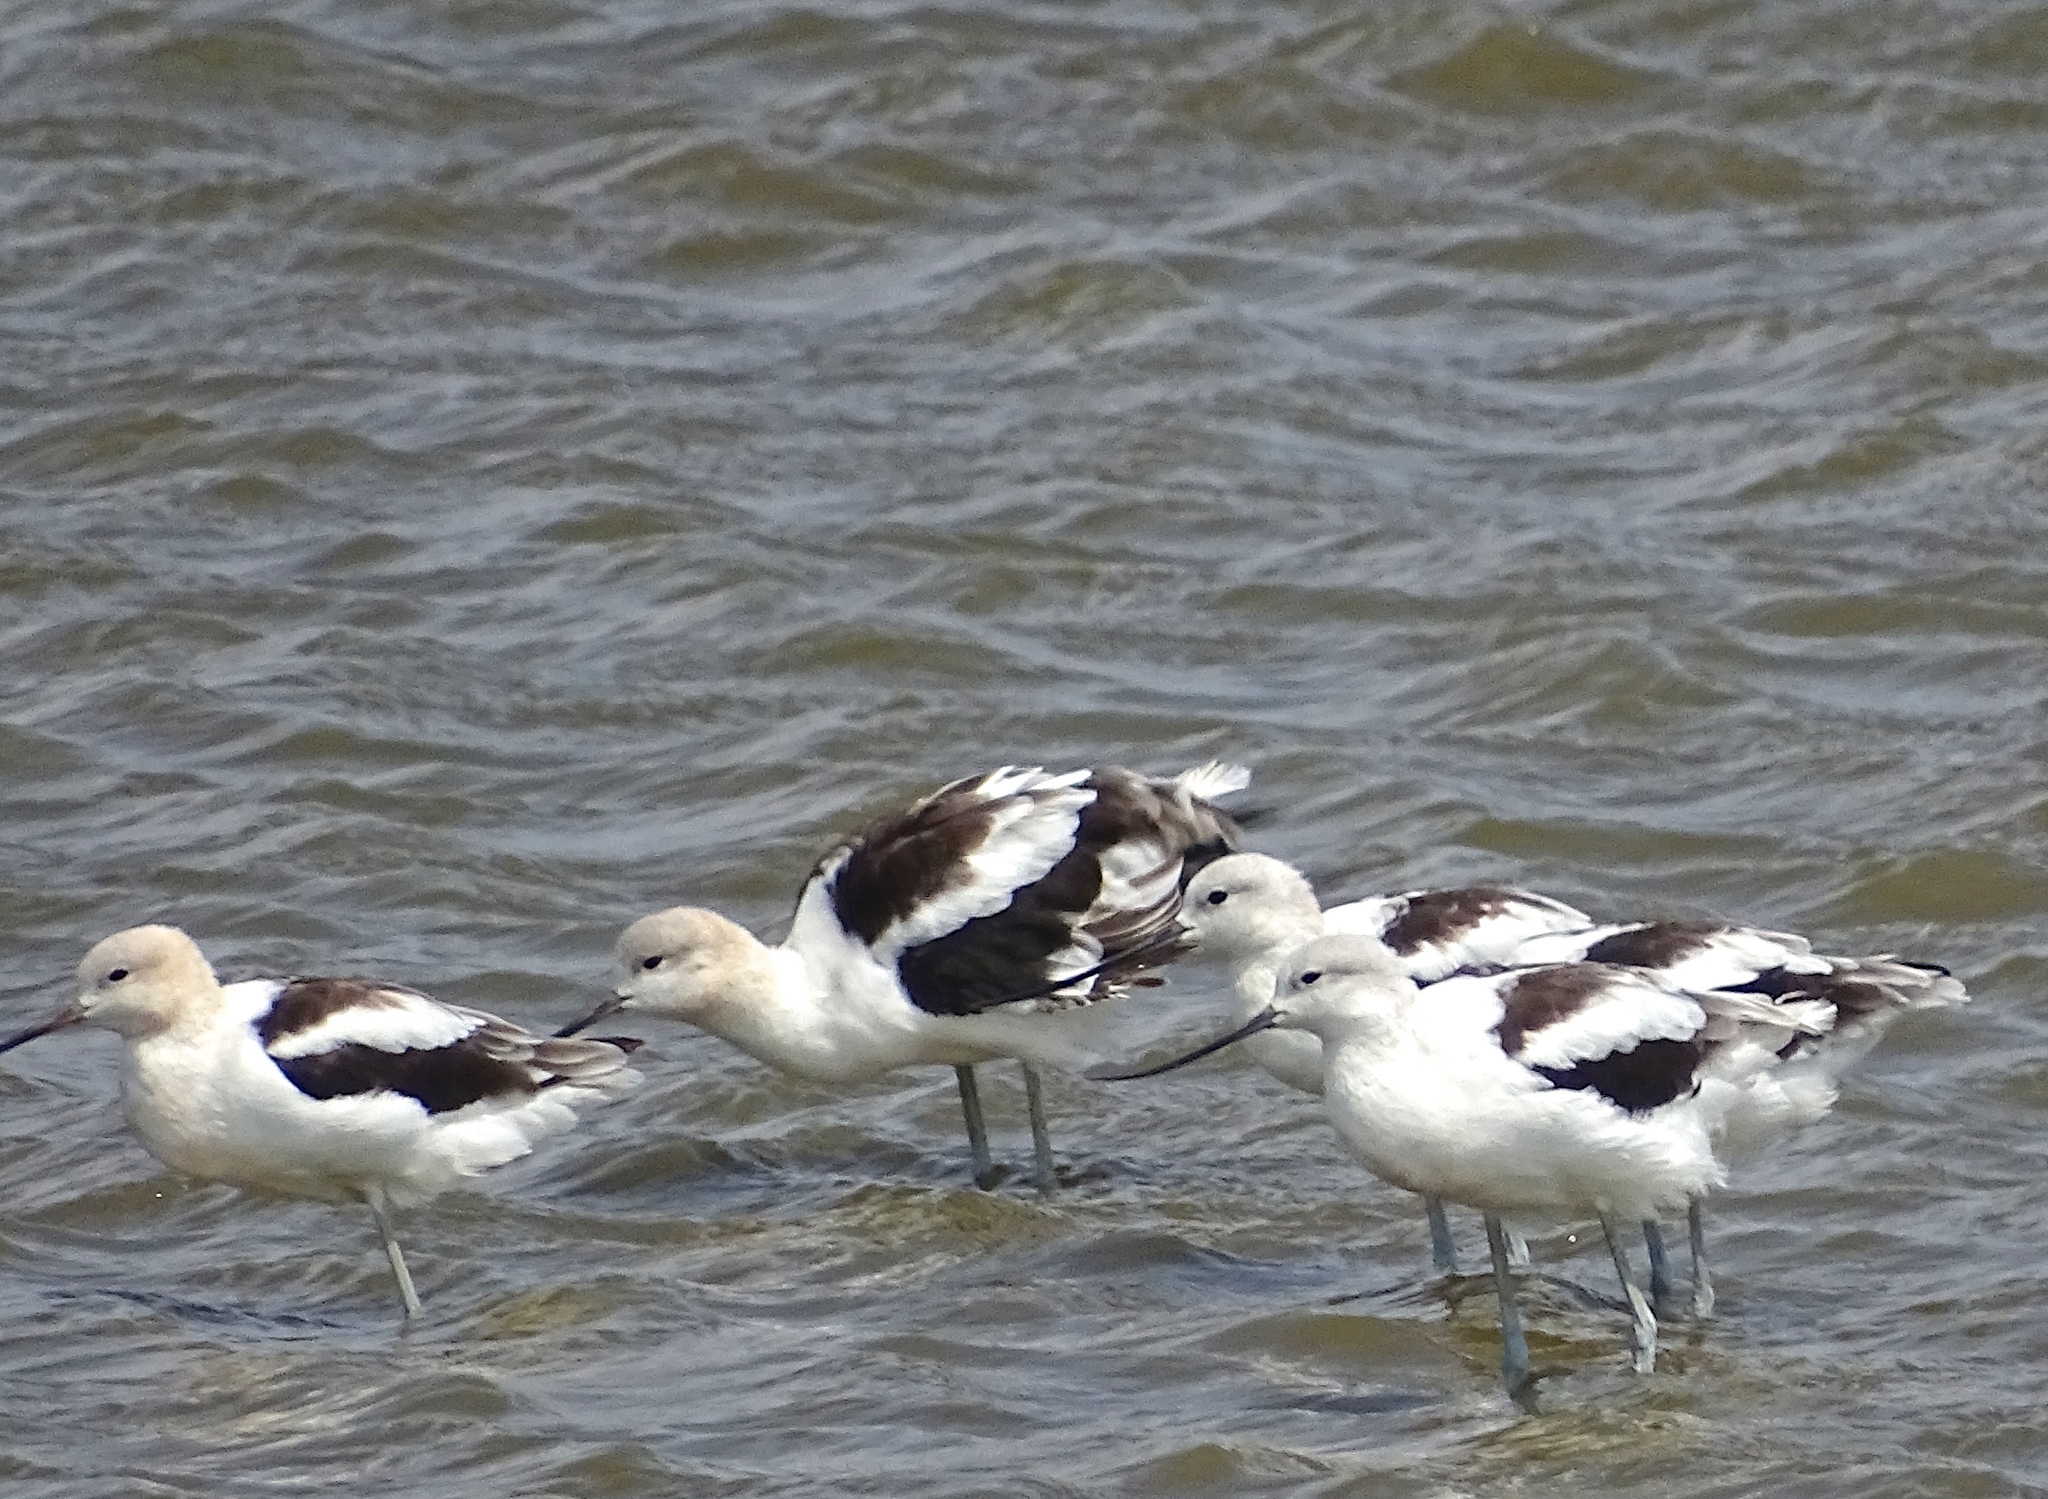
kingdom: Animalia
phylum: Chordata
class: Aves
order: Charadriiformes
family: Recurvirostridae
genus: Recurvirostra
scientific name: Recurvirostra americana
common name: American avocet
